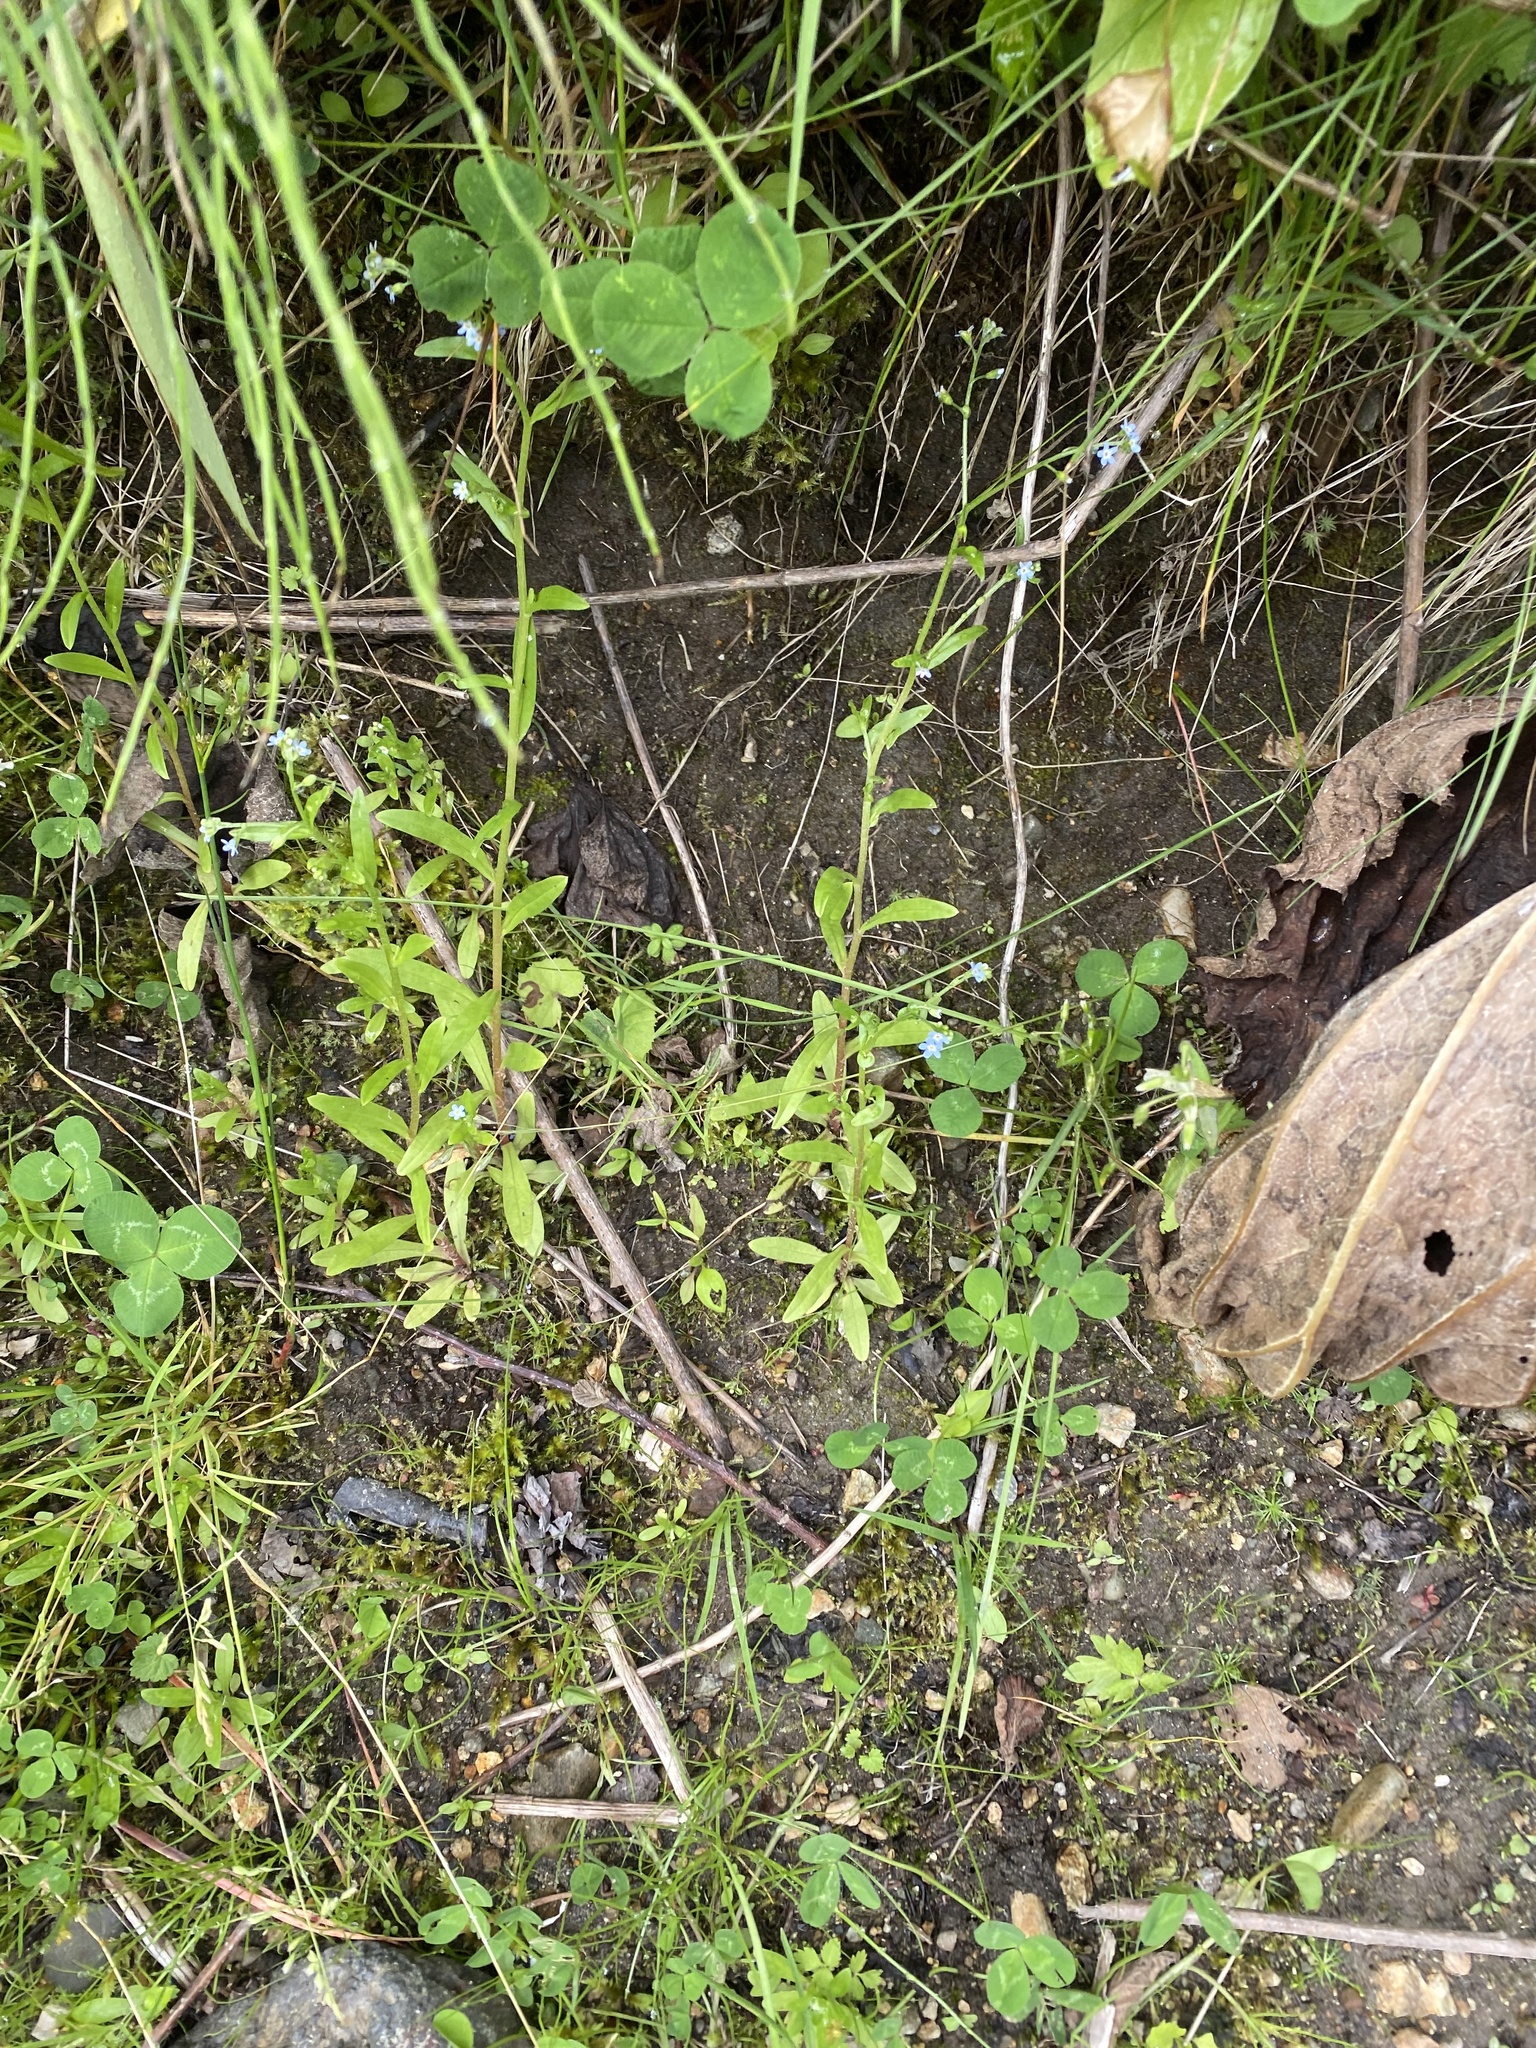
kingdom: Plantae
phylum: Tracheophyta
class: Magnoliopsida
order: Boraginales
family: Boraginaceae
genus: Myosotis
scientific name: Myosotis laxa
